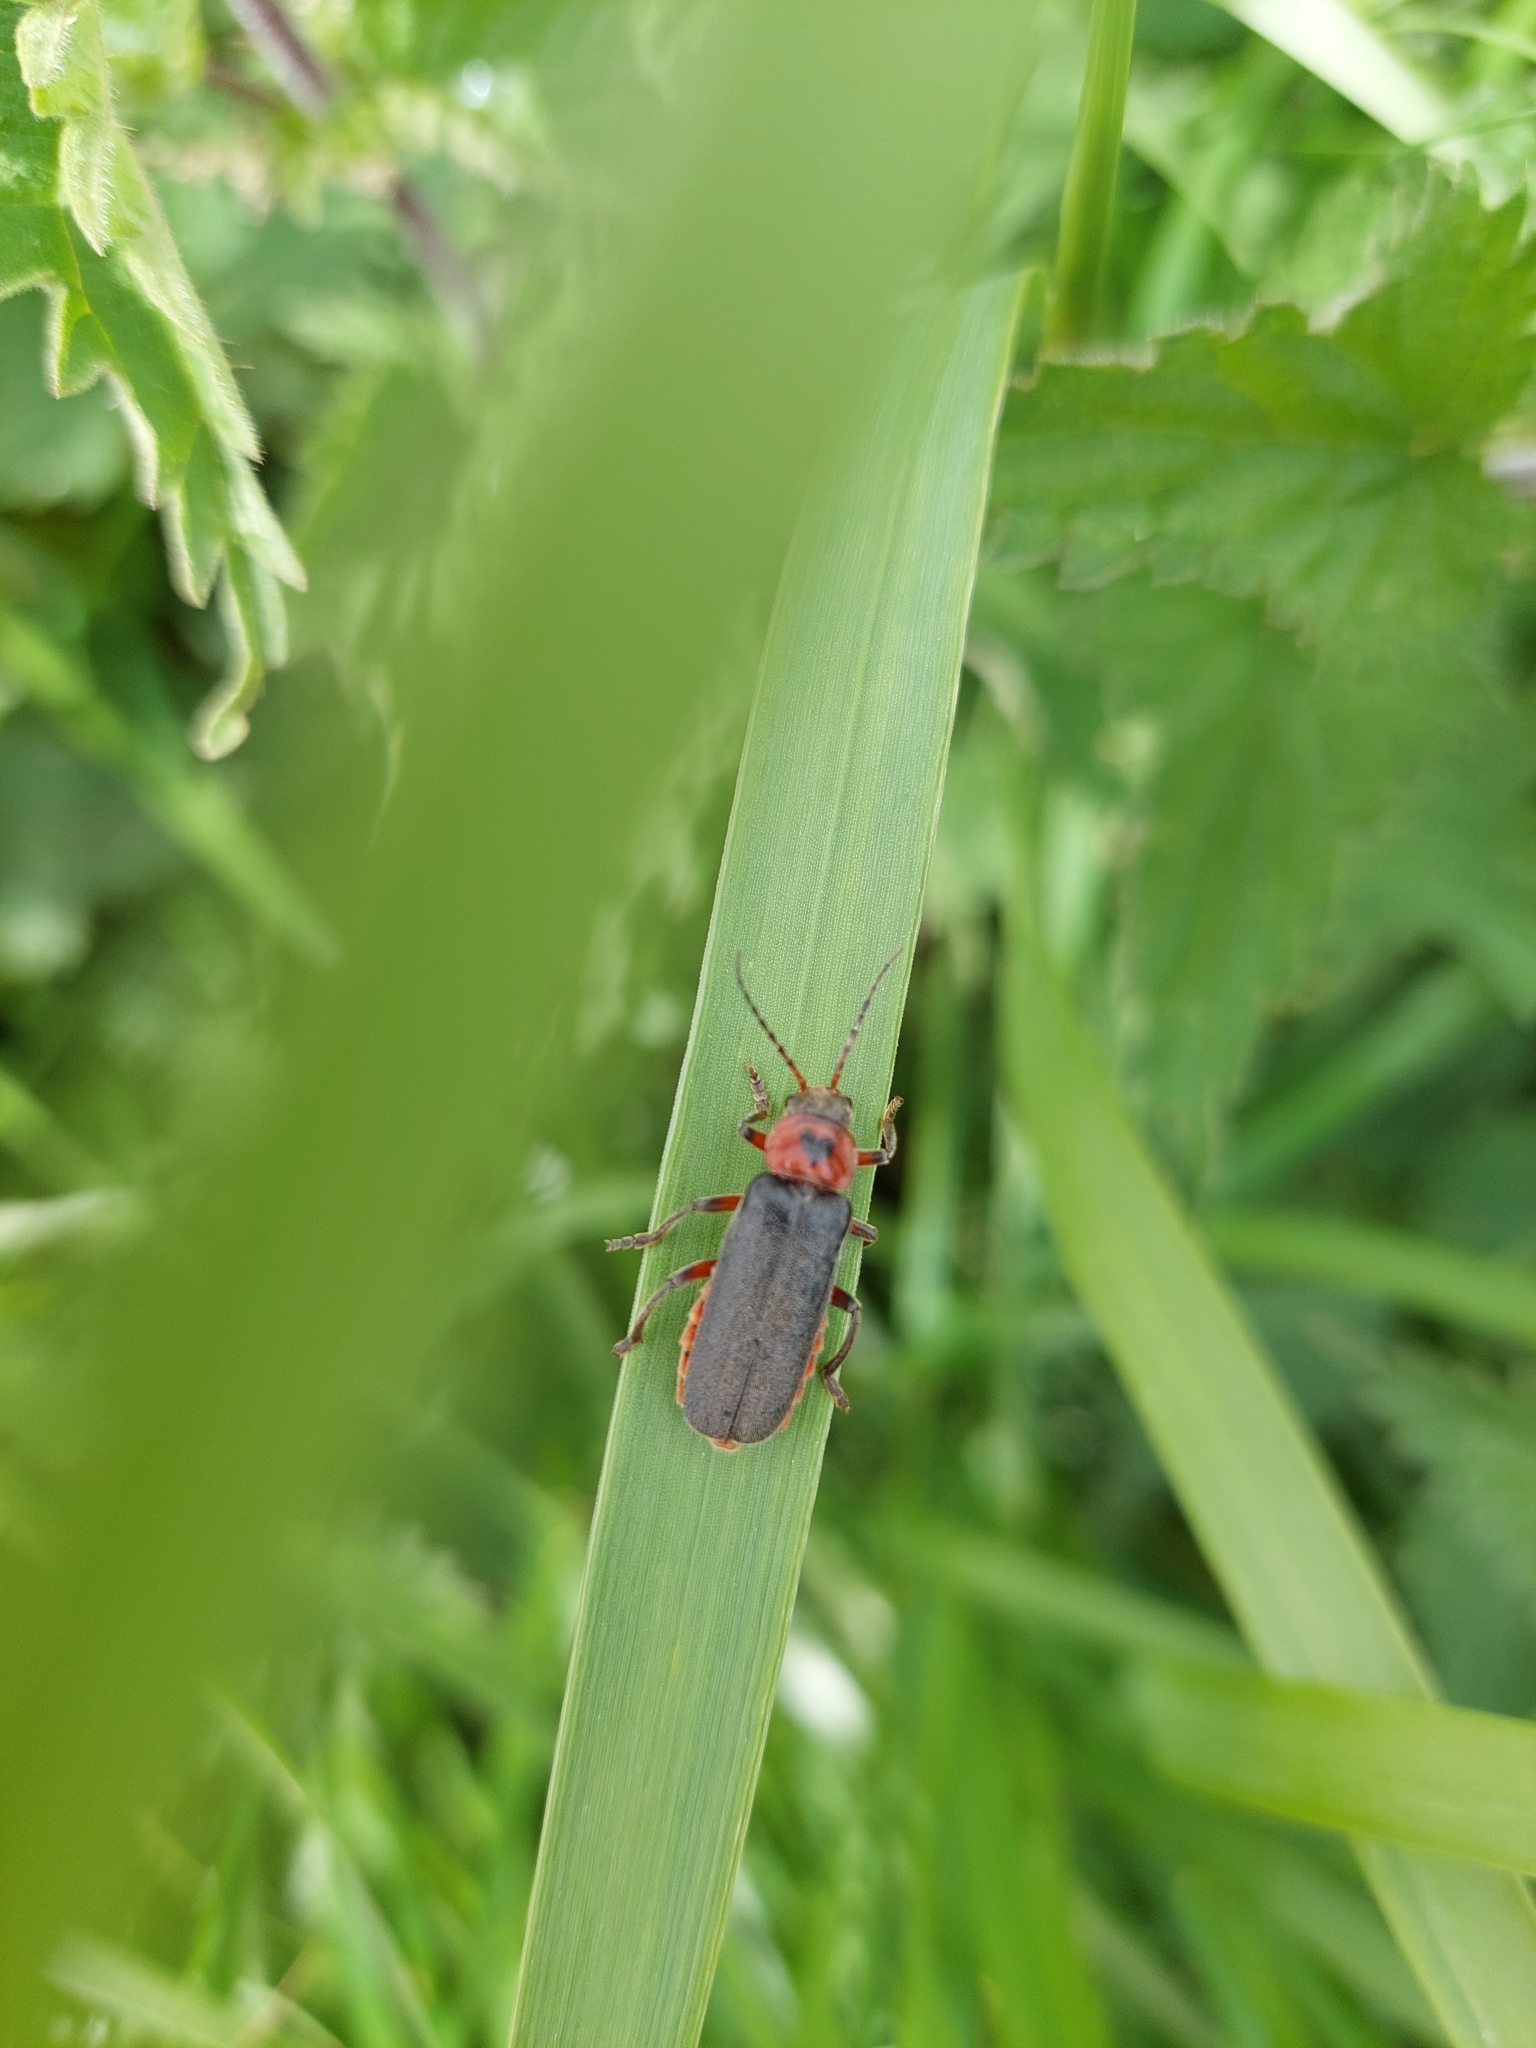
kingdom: Animalia
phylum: Arthropoda
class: Insecta
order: Coleoptera
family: Cantharidae
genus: Cantharis
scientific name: Cantharis rustica
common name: Soldier beetle
